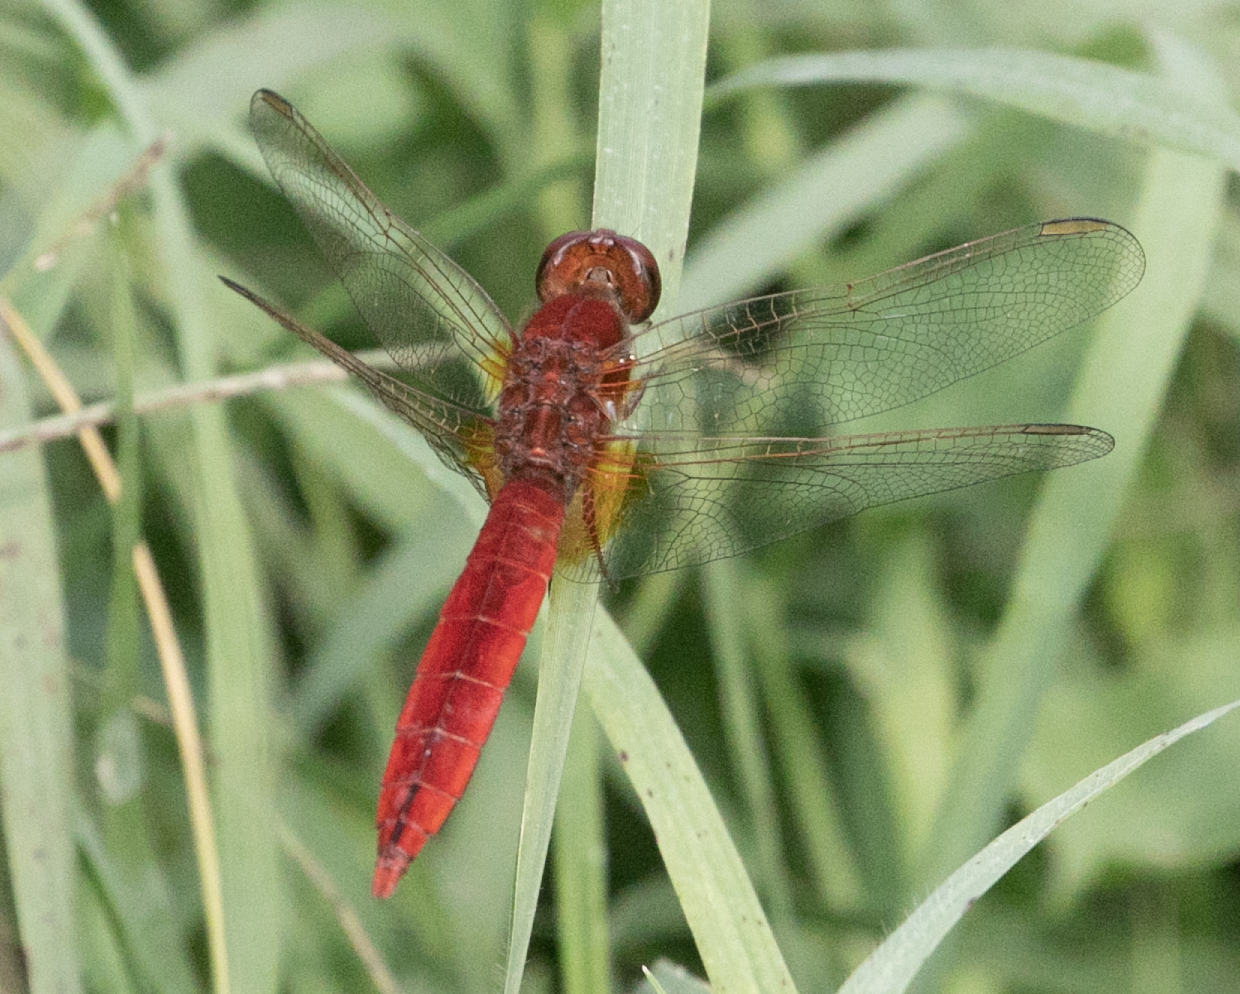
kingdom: Animalia
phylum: Arthropoda
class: Insecta
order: Odonata
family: Libellulidae
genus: Crocothemis
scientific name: Crocothemis erythraea
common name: Scarlet dragonfly
